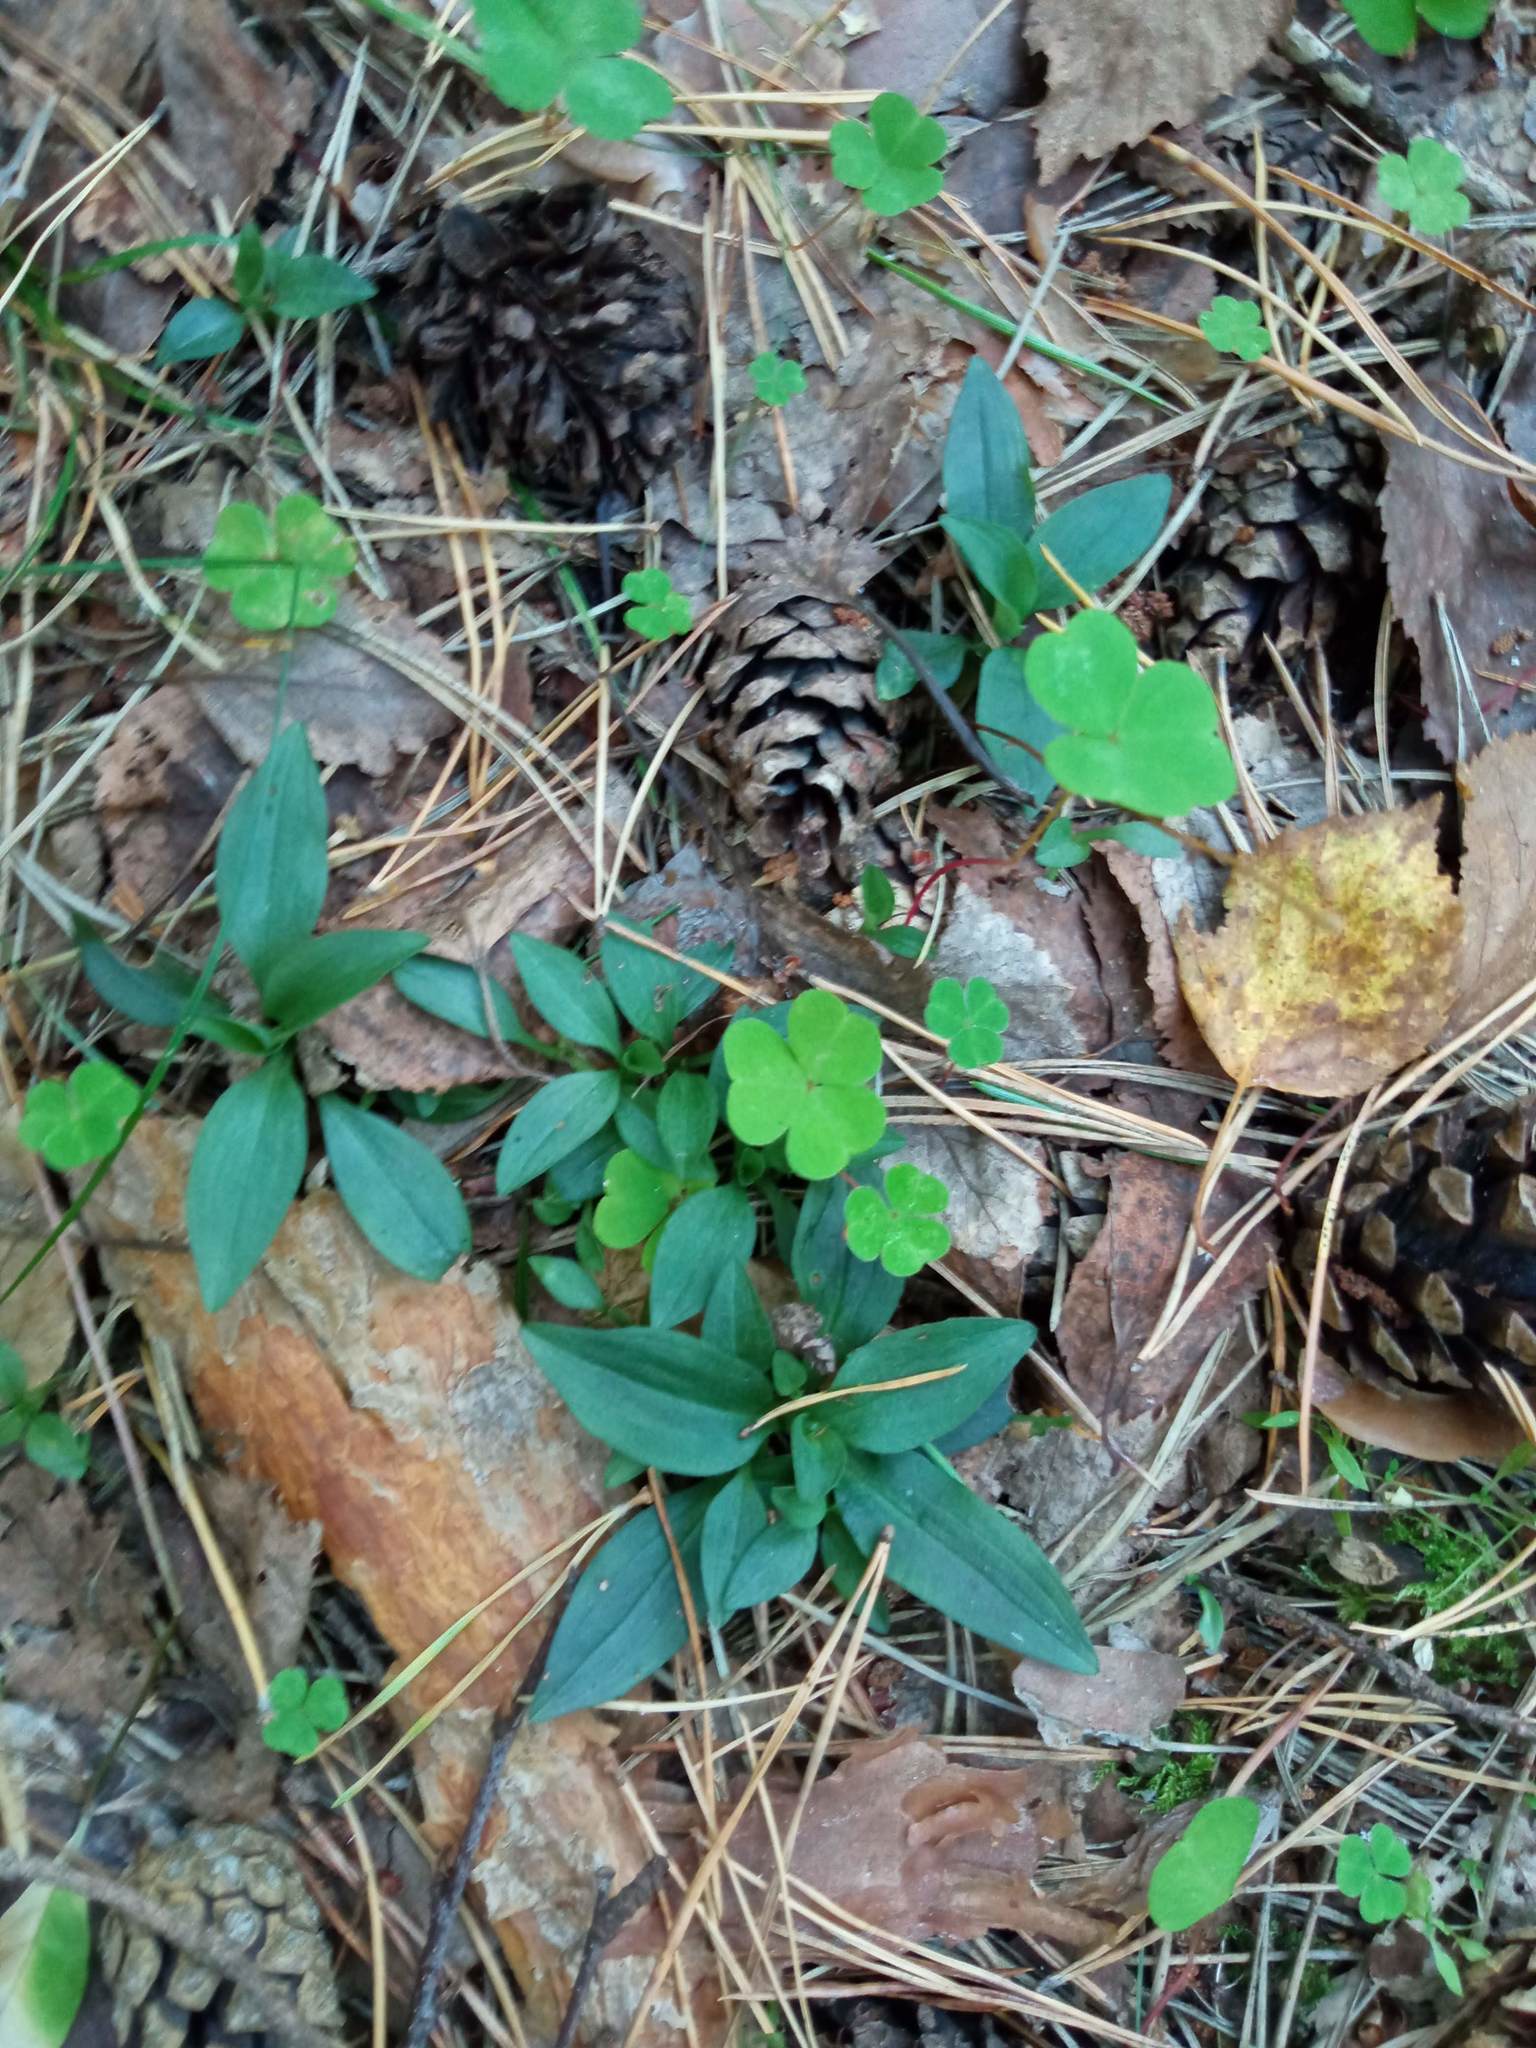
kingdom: Plantae
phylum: Tracheophyta
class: Liliopsida
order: Asparagales
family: Orchidaceae
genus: Goodyera
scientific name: Goodyera repens
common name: Creeping lady's-tresses
